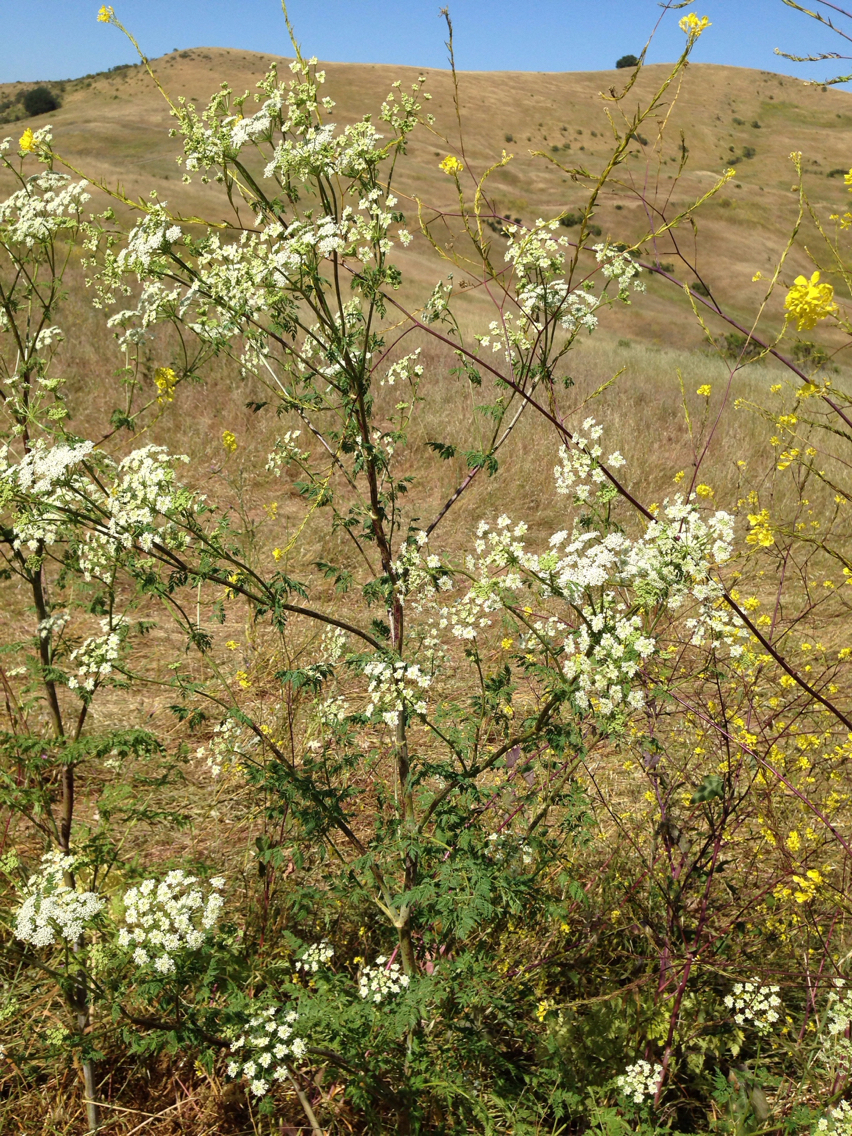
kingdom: Plantae
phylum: Tracheophyta
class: Magnoliopsida
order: Apiales
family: Apiaceae
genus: Conium
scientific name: Conium maculatum
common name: Hemlock
